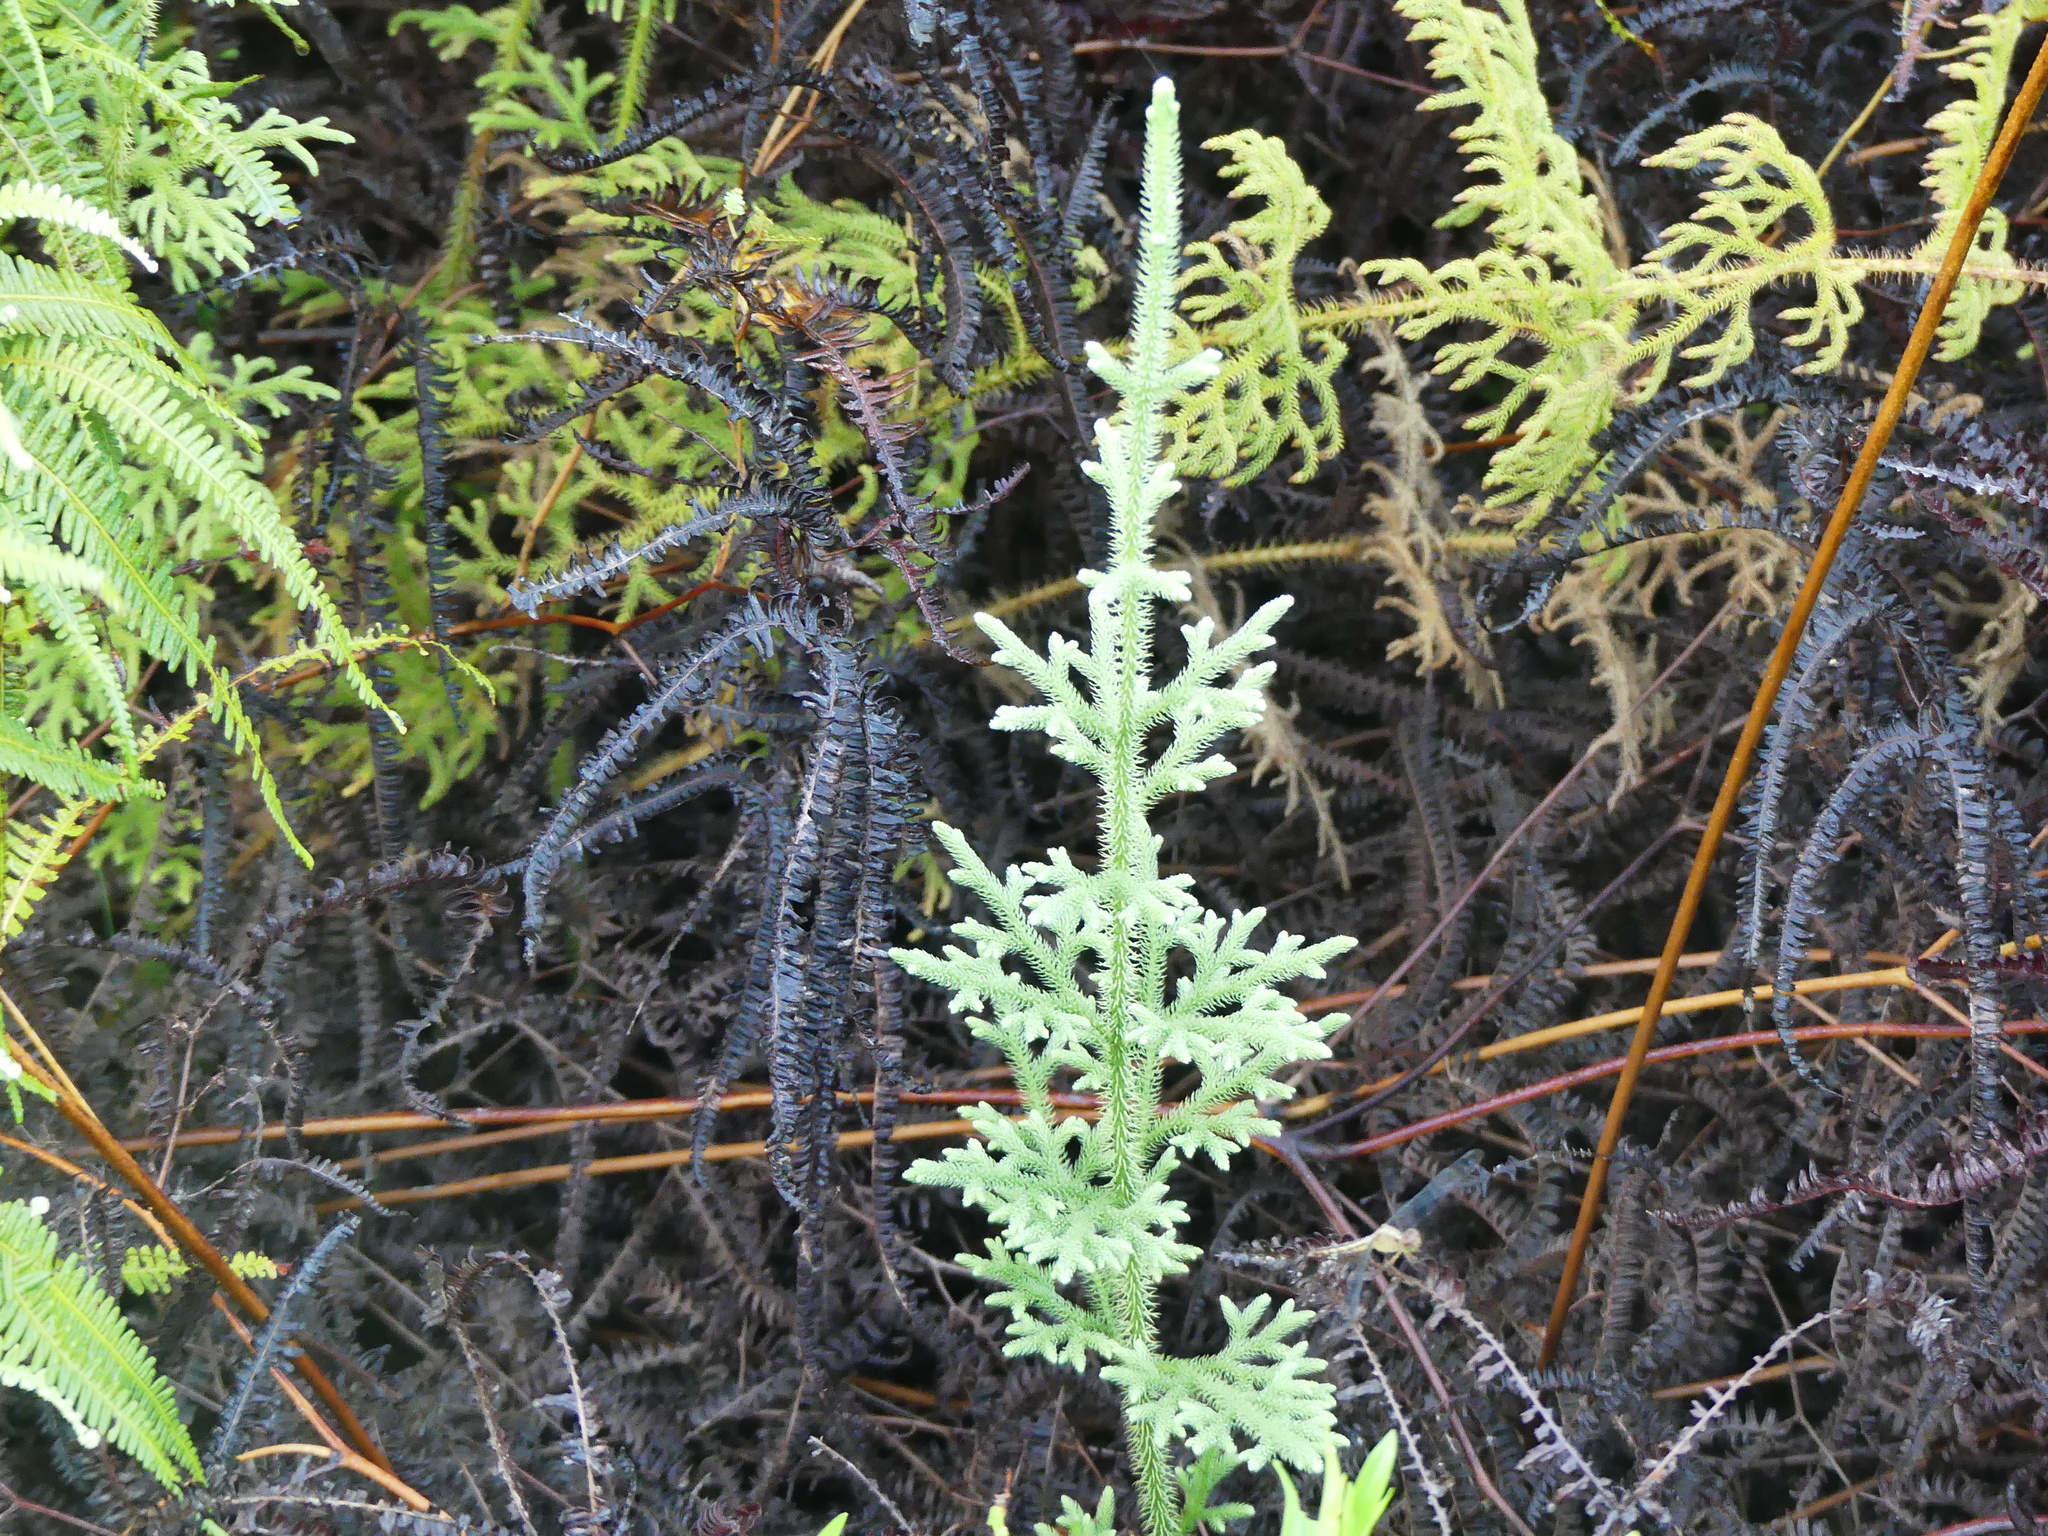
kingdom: Plantae
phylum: Tracheophyta
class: Lycopodiopsida
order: Lycopodiales
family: Lycopodiaceae
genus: Palhinhaea
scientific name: Palhinhaea cernua
